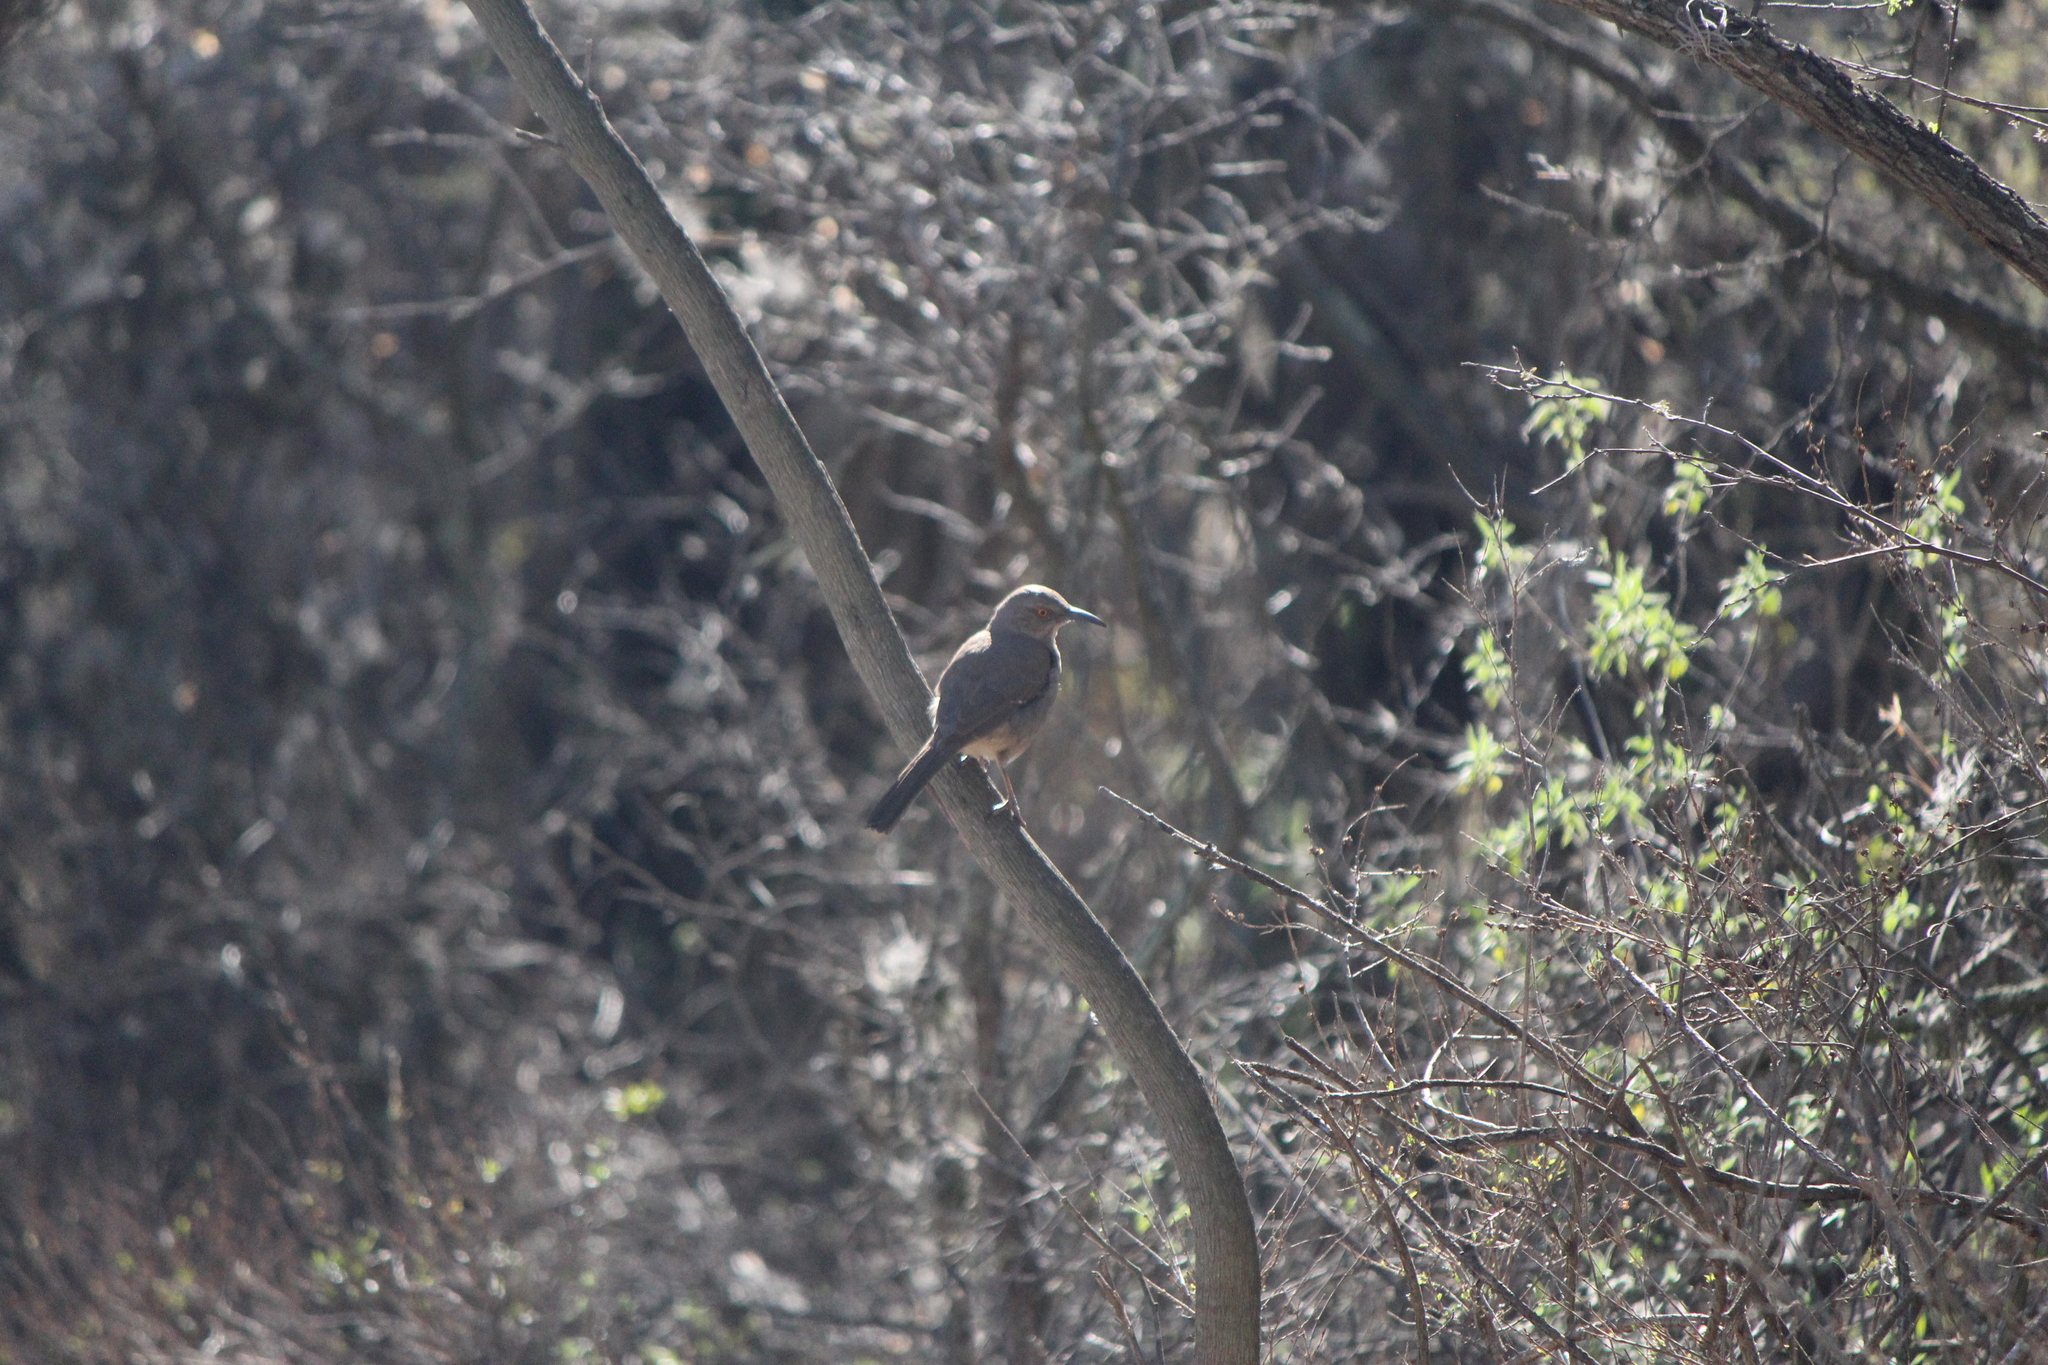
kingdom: Animalia
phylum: Chordata
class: Aves
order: Passeriformes
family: Mimidae
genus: Toxostoma
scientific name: Toxostoma curvirostre
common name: Curve-billed thrasher
